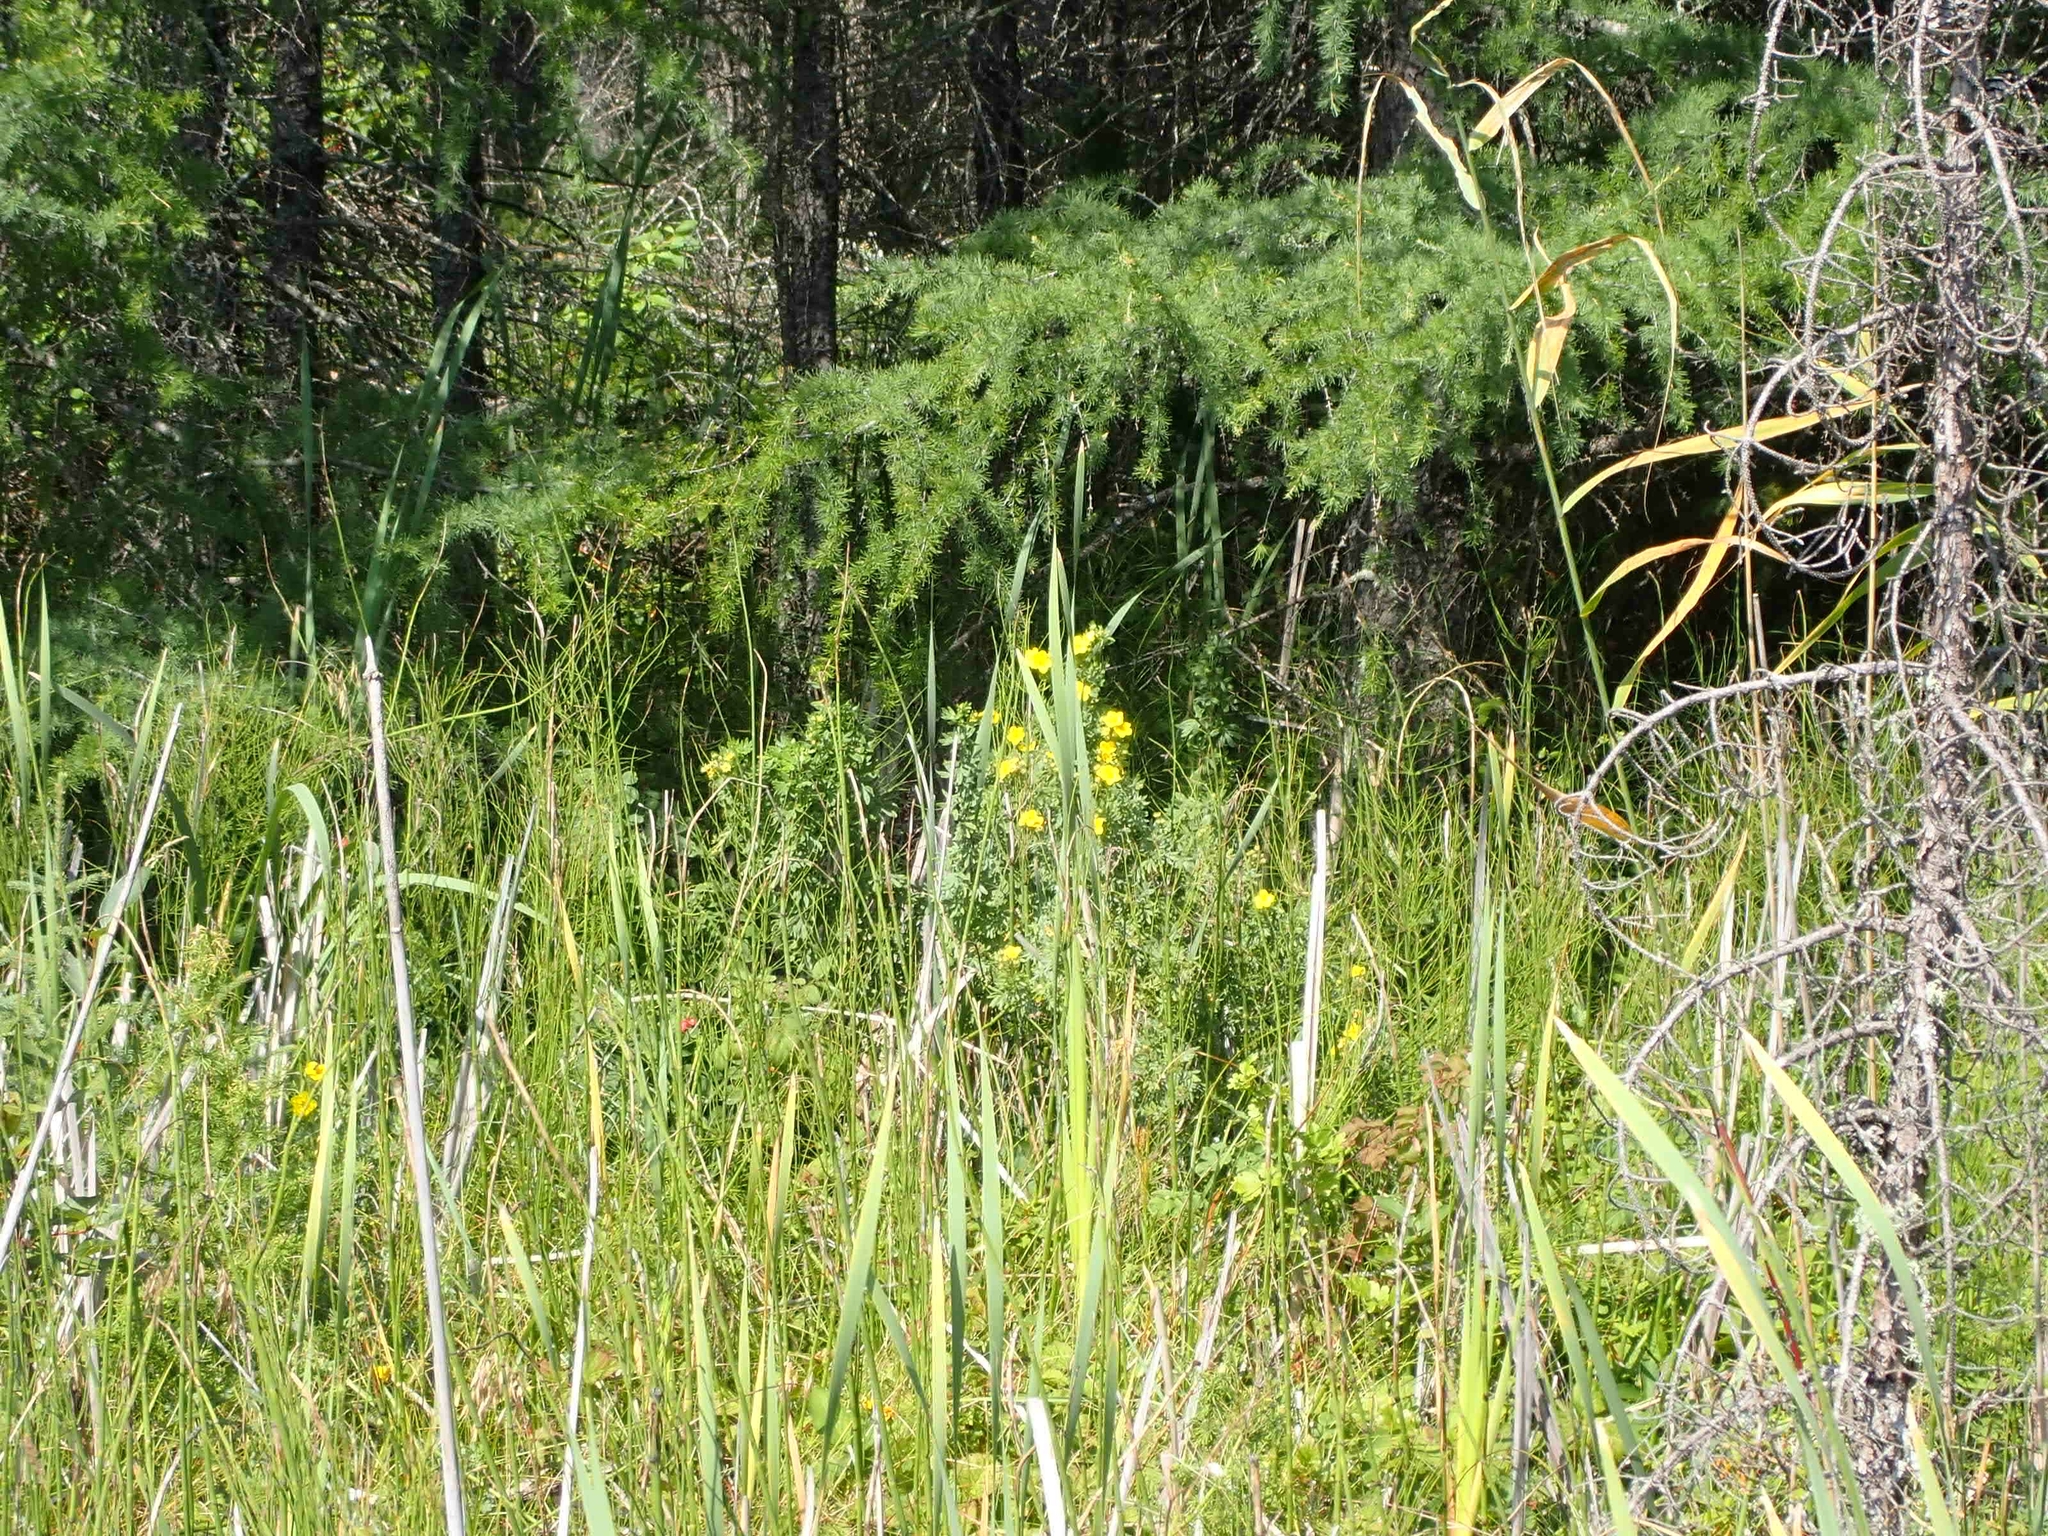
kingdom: Plantae
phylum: Tracheophyta
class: Magnoliopsida
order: Rosales
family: Rosaceae
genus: Dasiphora
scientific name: Dasiphora fruticosa
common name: Shrubby cinquefoil
